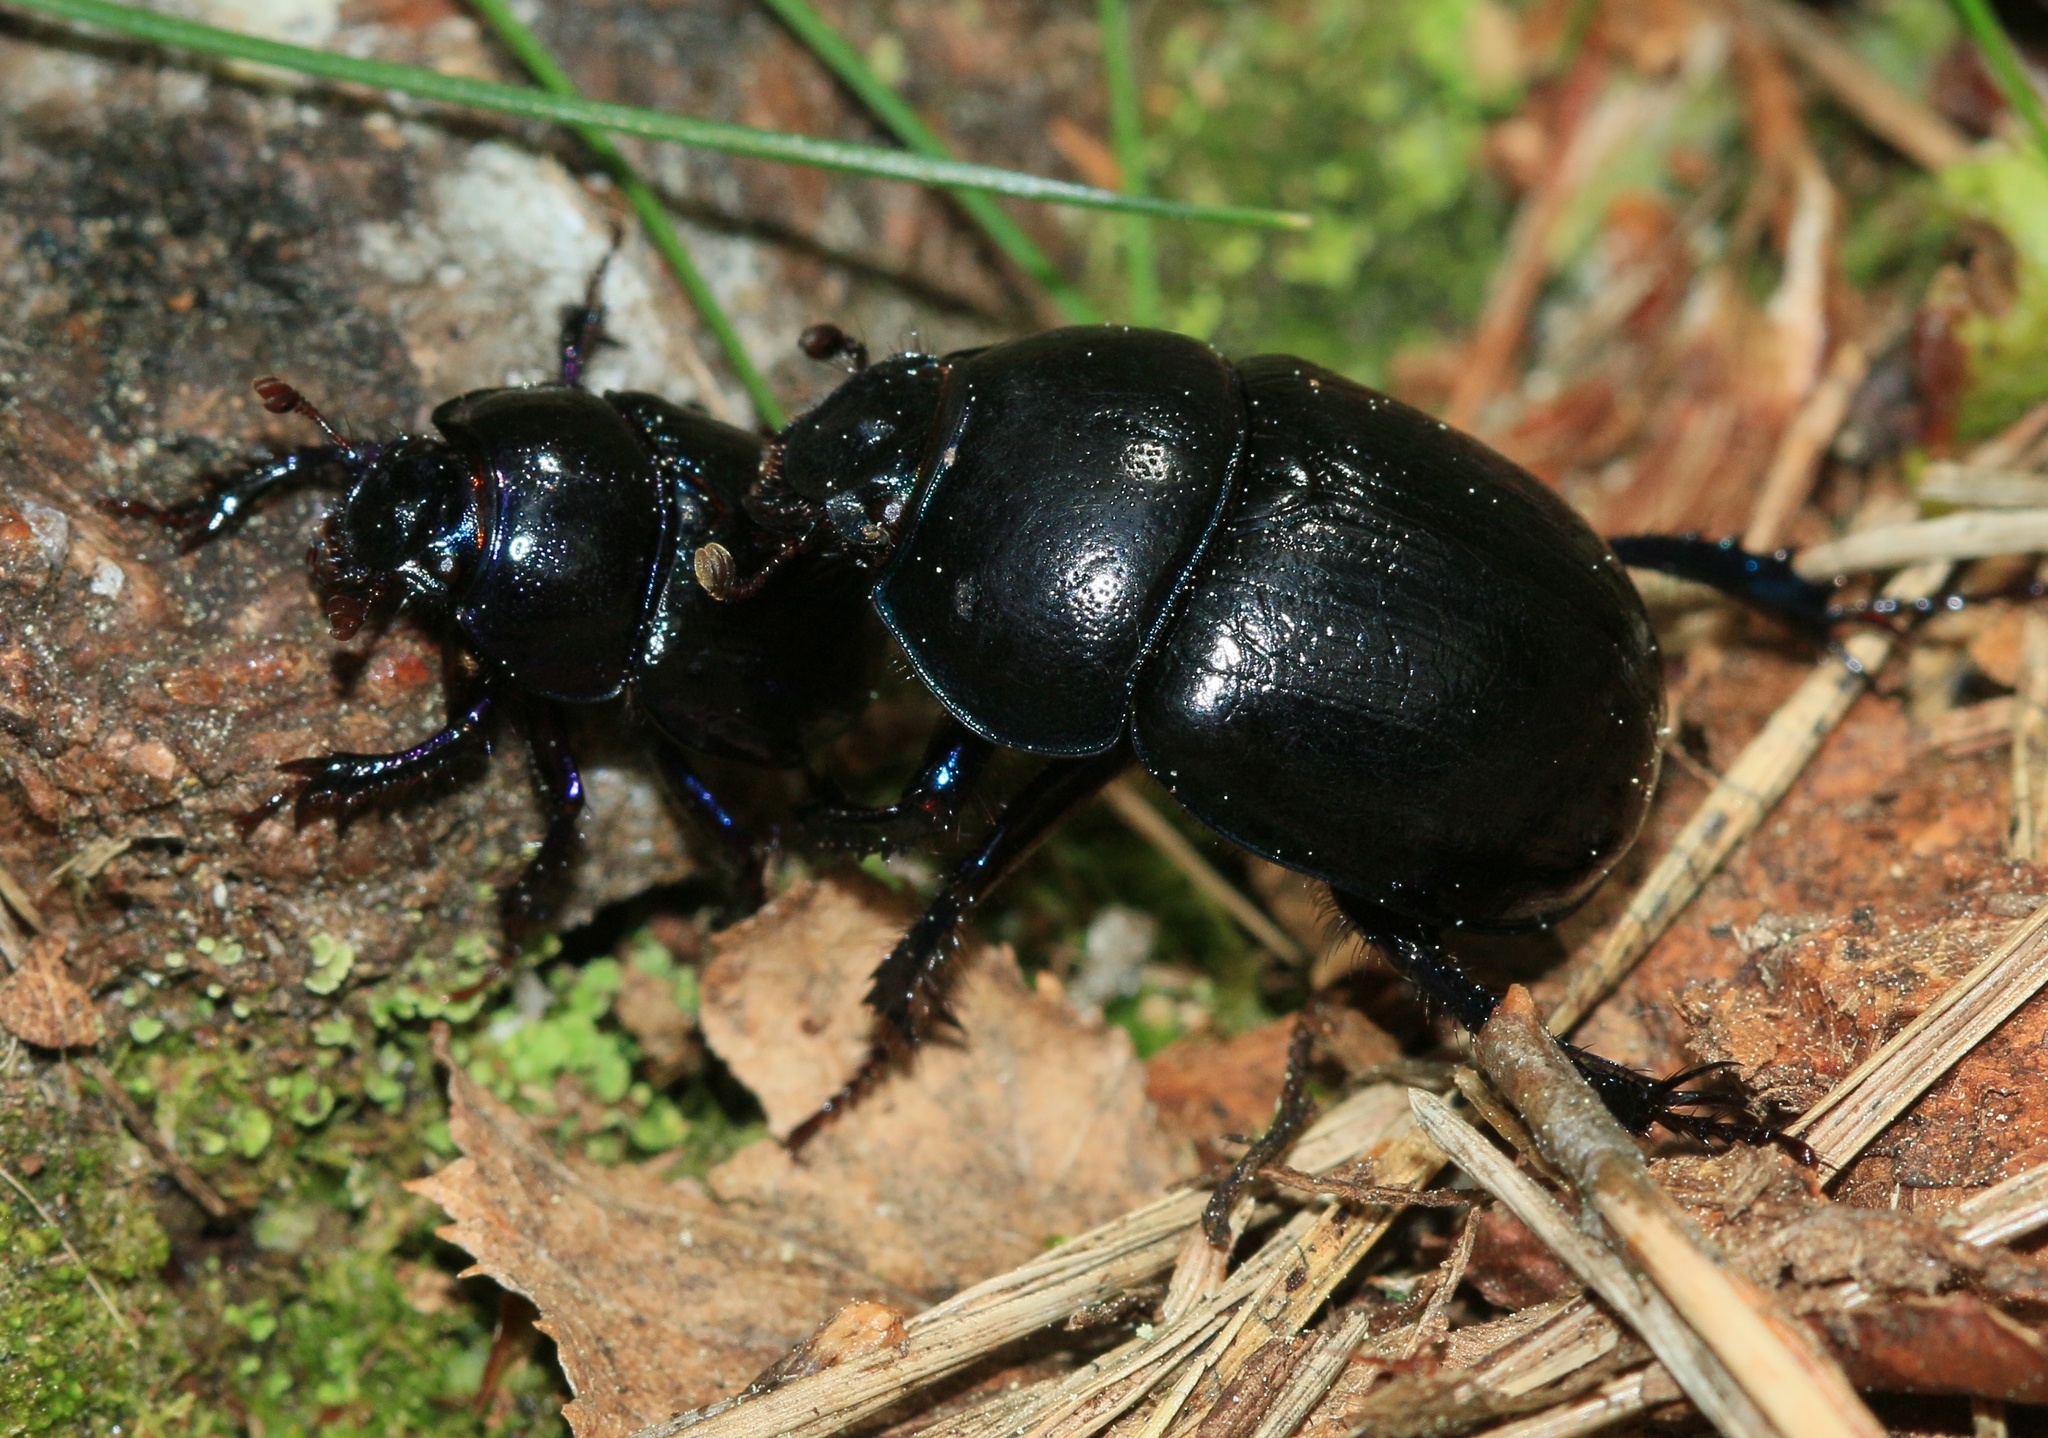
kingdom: Animalia
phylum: Arthropoda
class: Insecta
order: Coleoptera
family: Geotrupidae
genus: Anoplotrupes
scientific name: Anoplotrupes stercorosus
